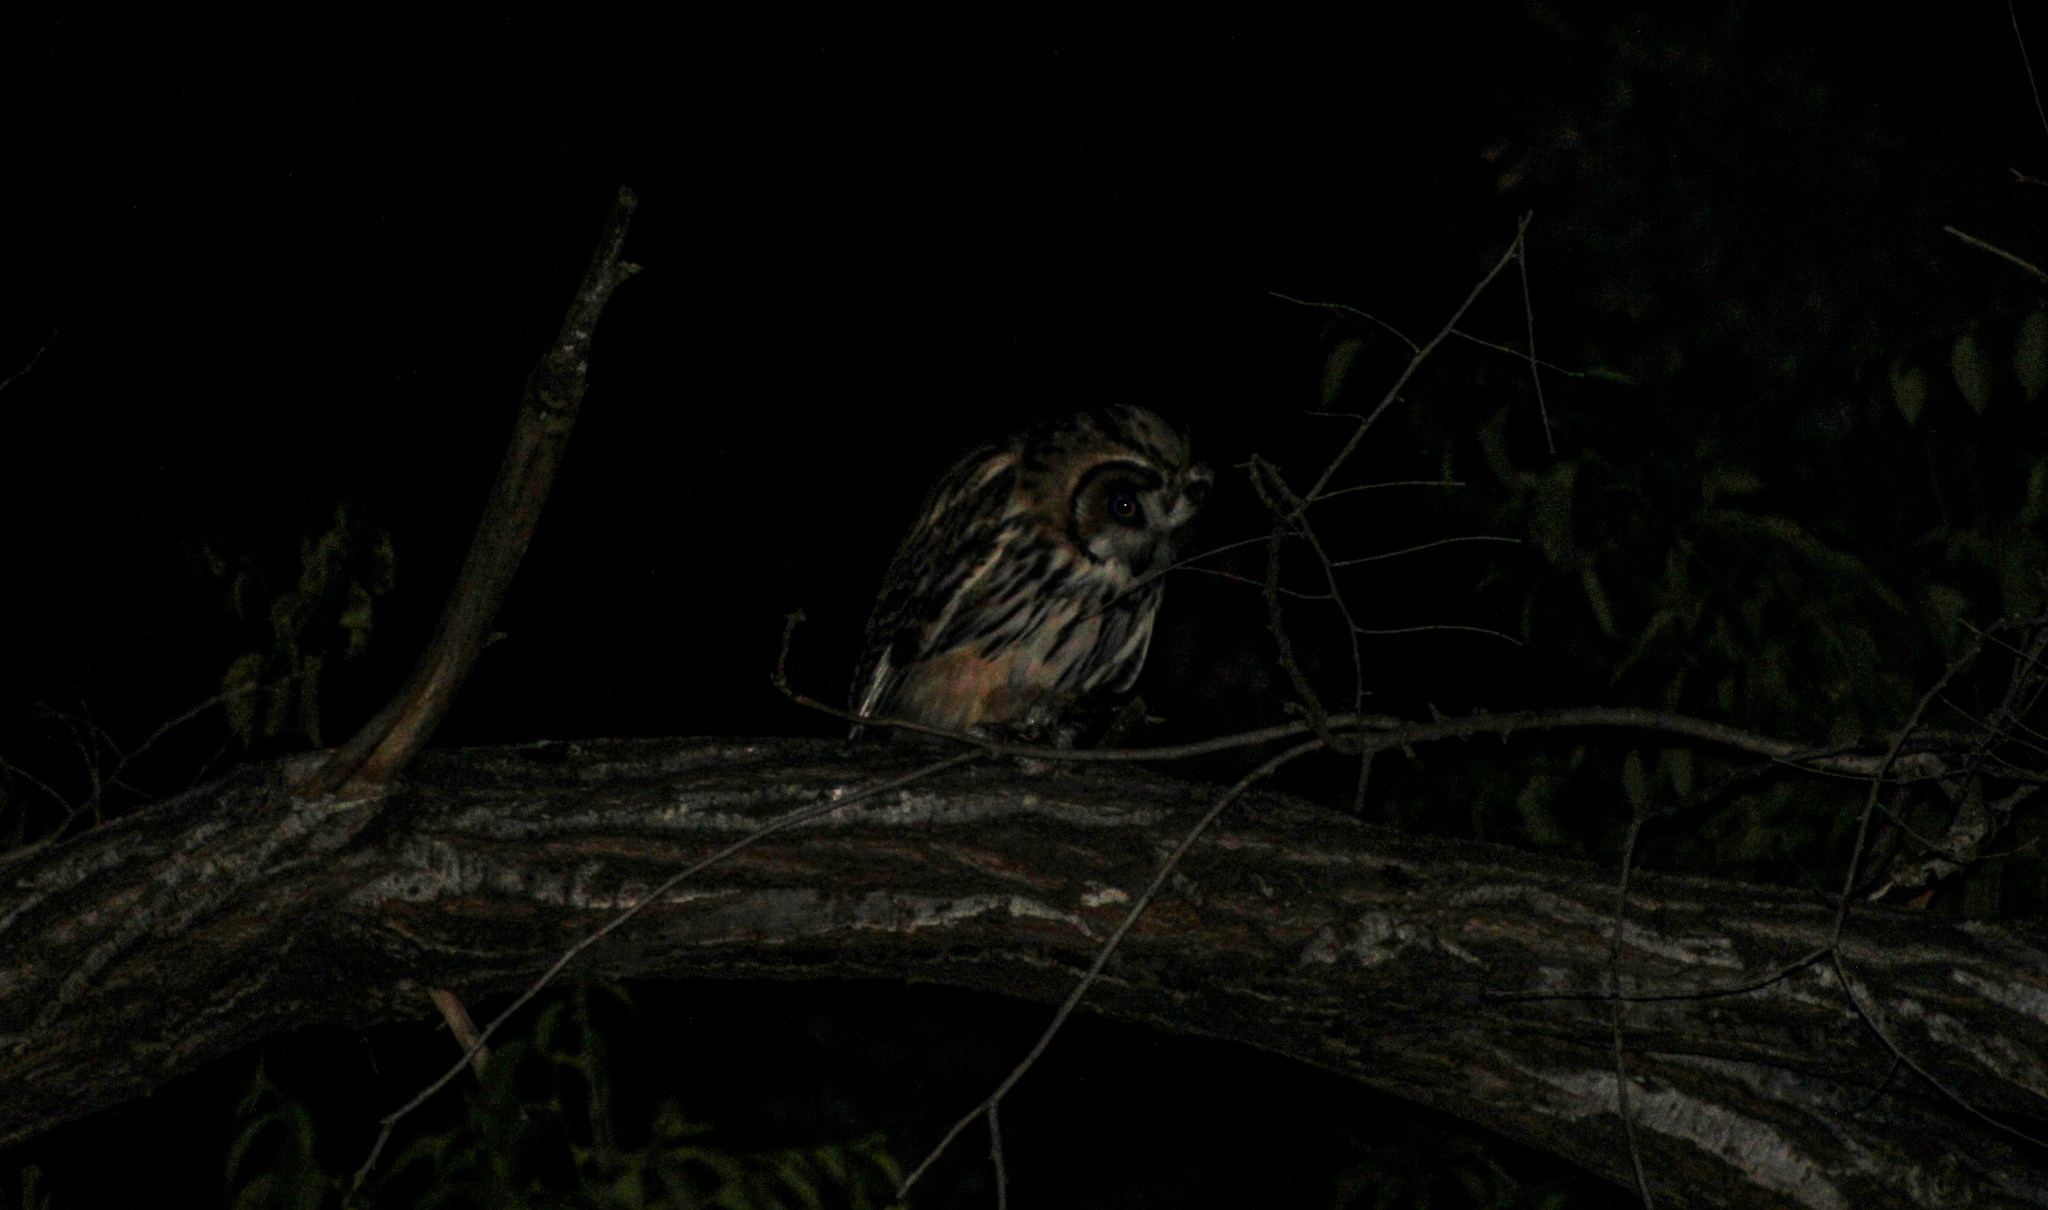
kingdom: Animalia
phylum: Chordata
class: Aves
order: Strigiformes
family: Strigidae
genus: Pseudoscops
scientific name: Pseudoscops clamator
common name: Striped owl
